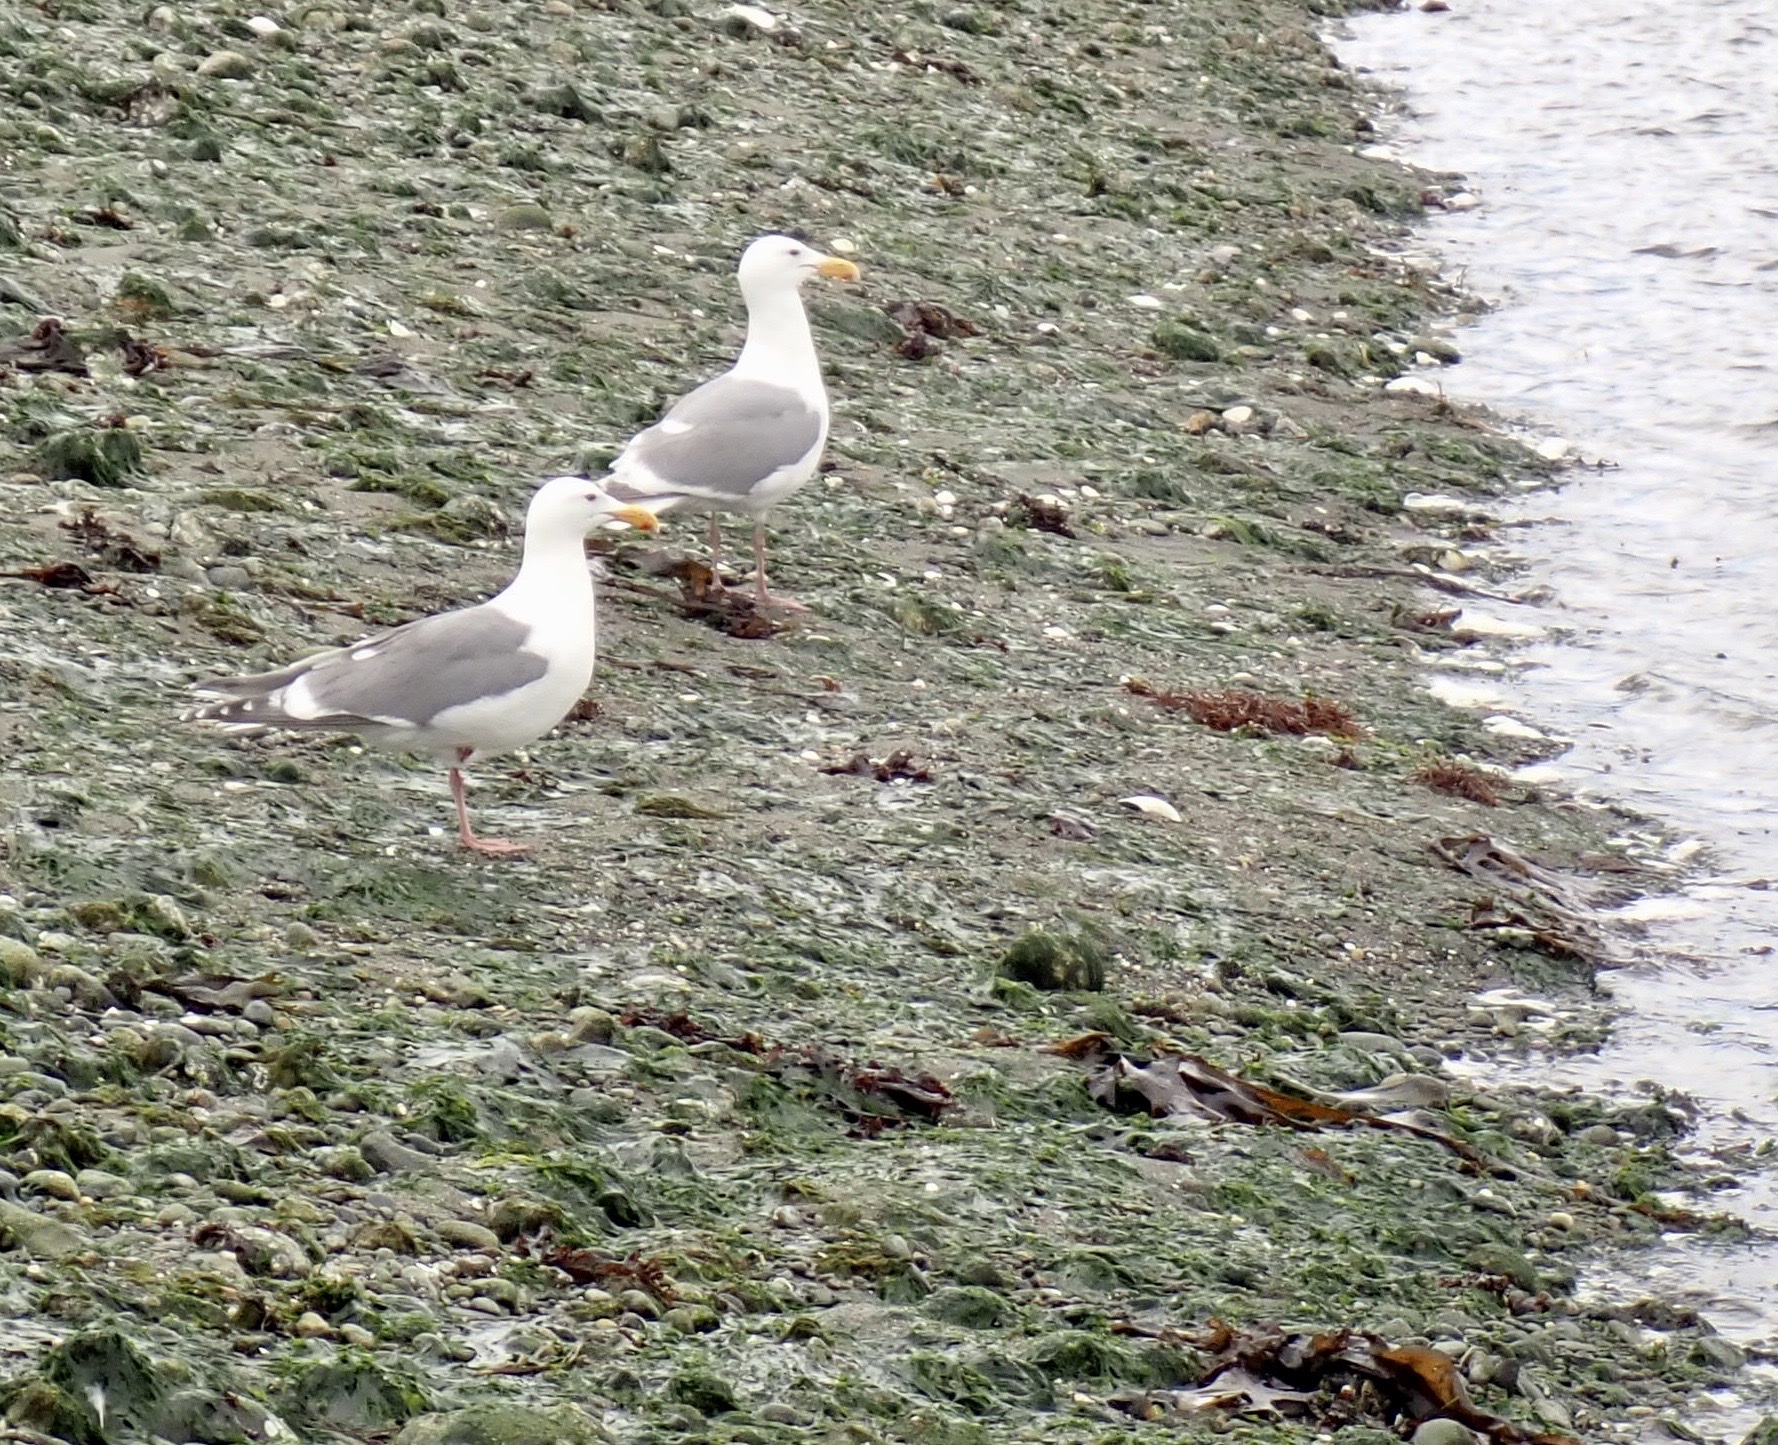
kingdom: Animalia
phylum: Chordata
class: Aves
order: Charadriiformes
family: Laridae
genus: Larus
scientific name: Larus
